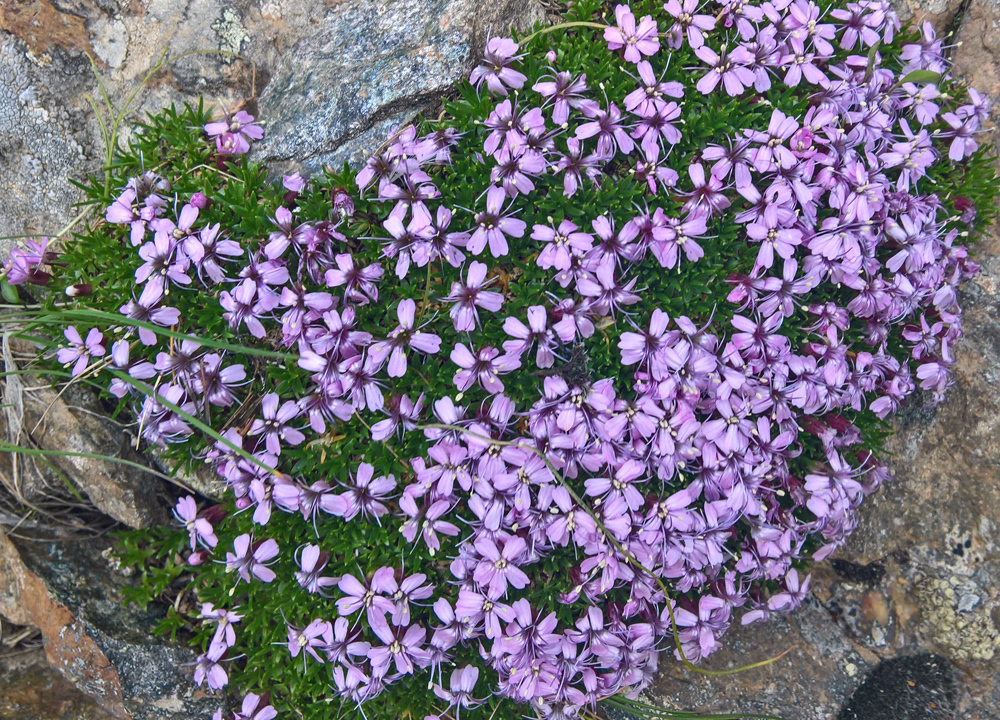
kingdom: Plantae
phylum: Tracheophyta
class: Magnoliopsida
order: Caryophyllales
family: Caryophyllaceae
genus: Silene
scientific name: Silene acaulis
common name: Moss campion
